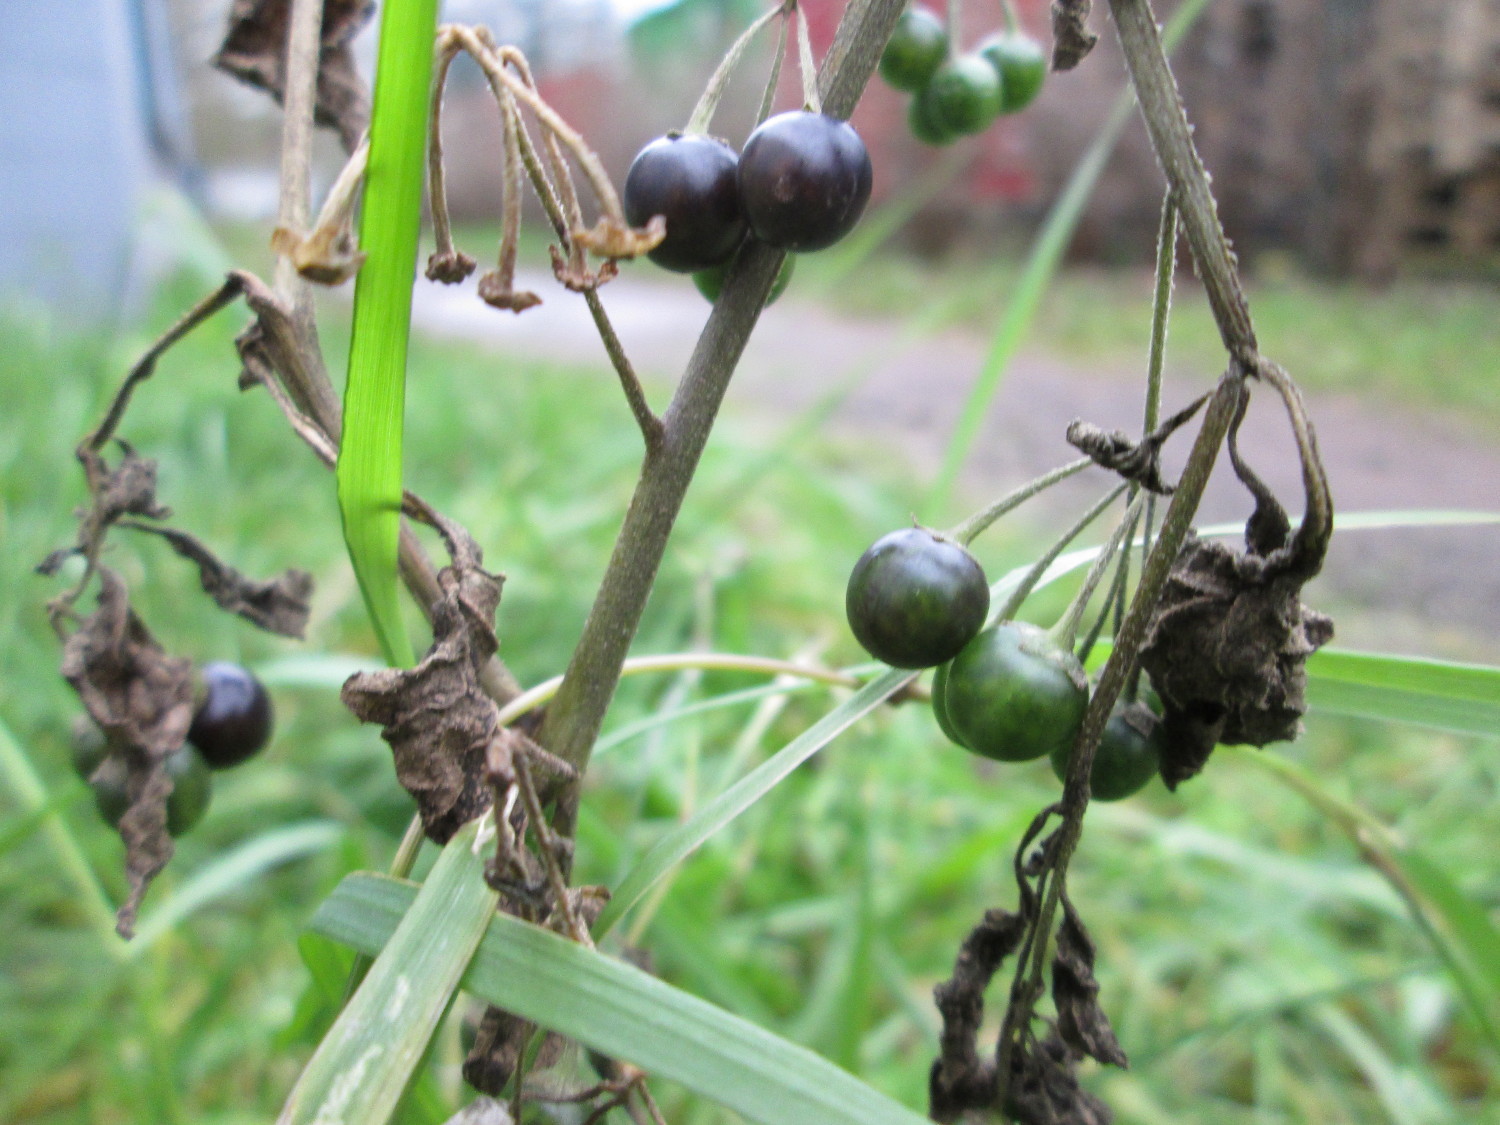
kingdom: Plantae
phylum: Tracheophyta
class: Magnoliopsida
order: Solanales
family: Solanaceae
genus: Solanum
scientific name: Solanum nigrum
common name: Black nightshade
